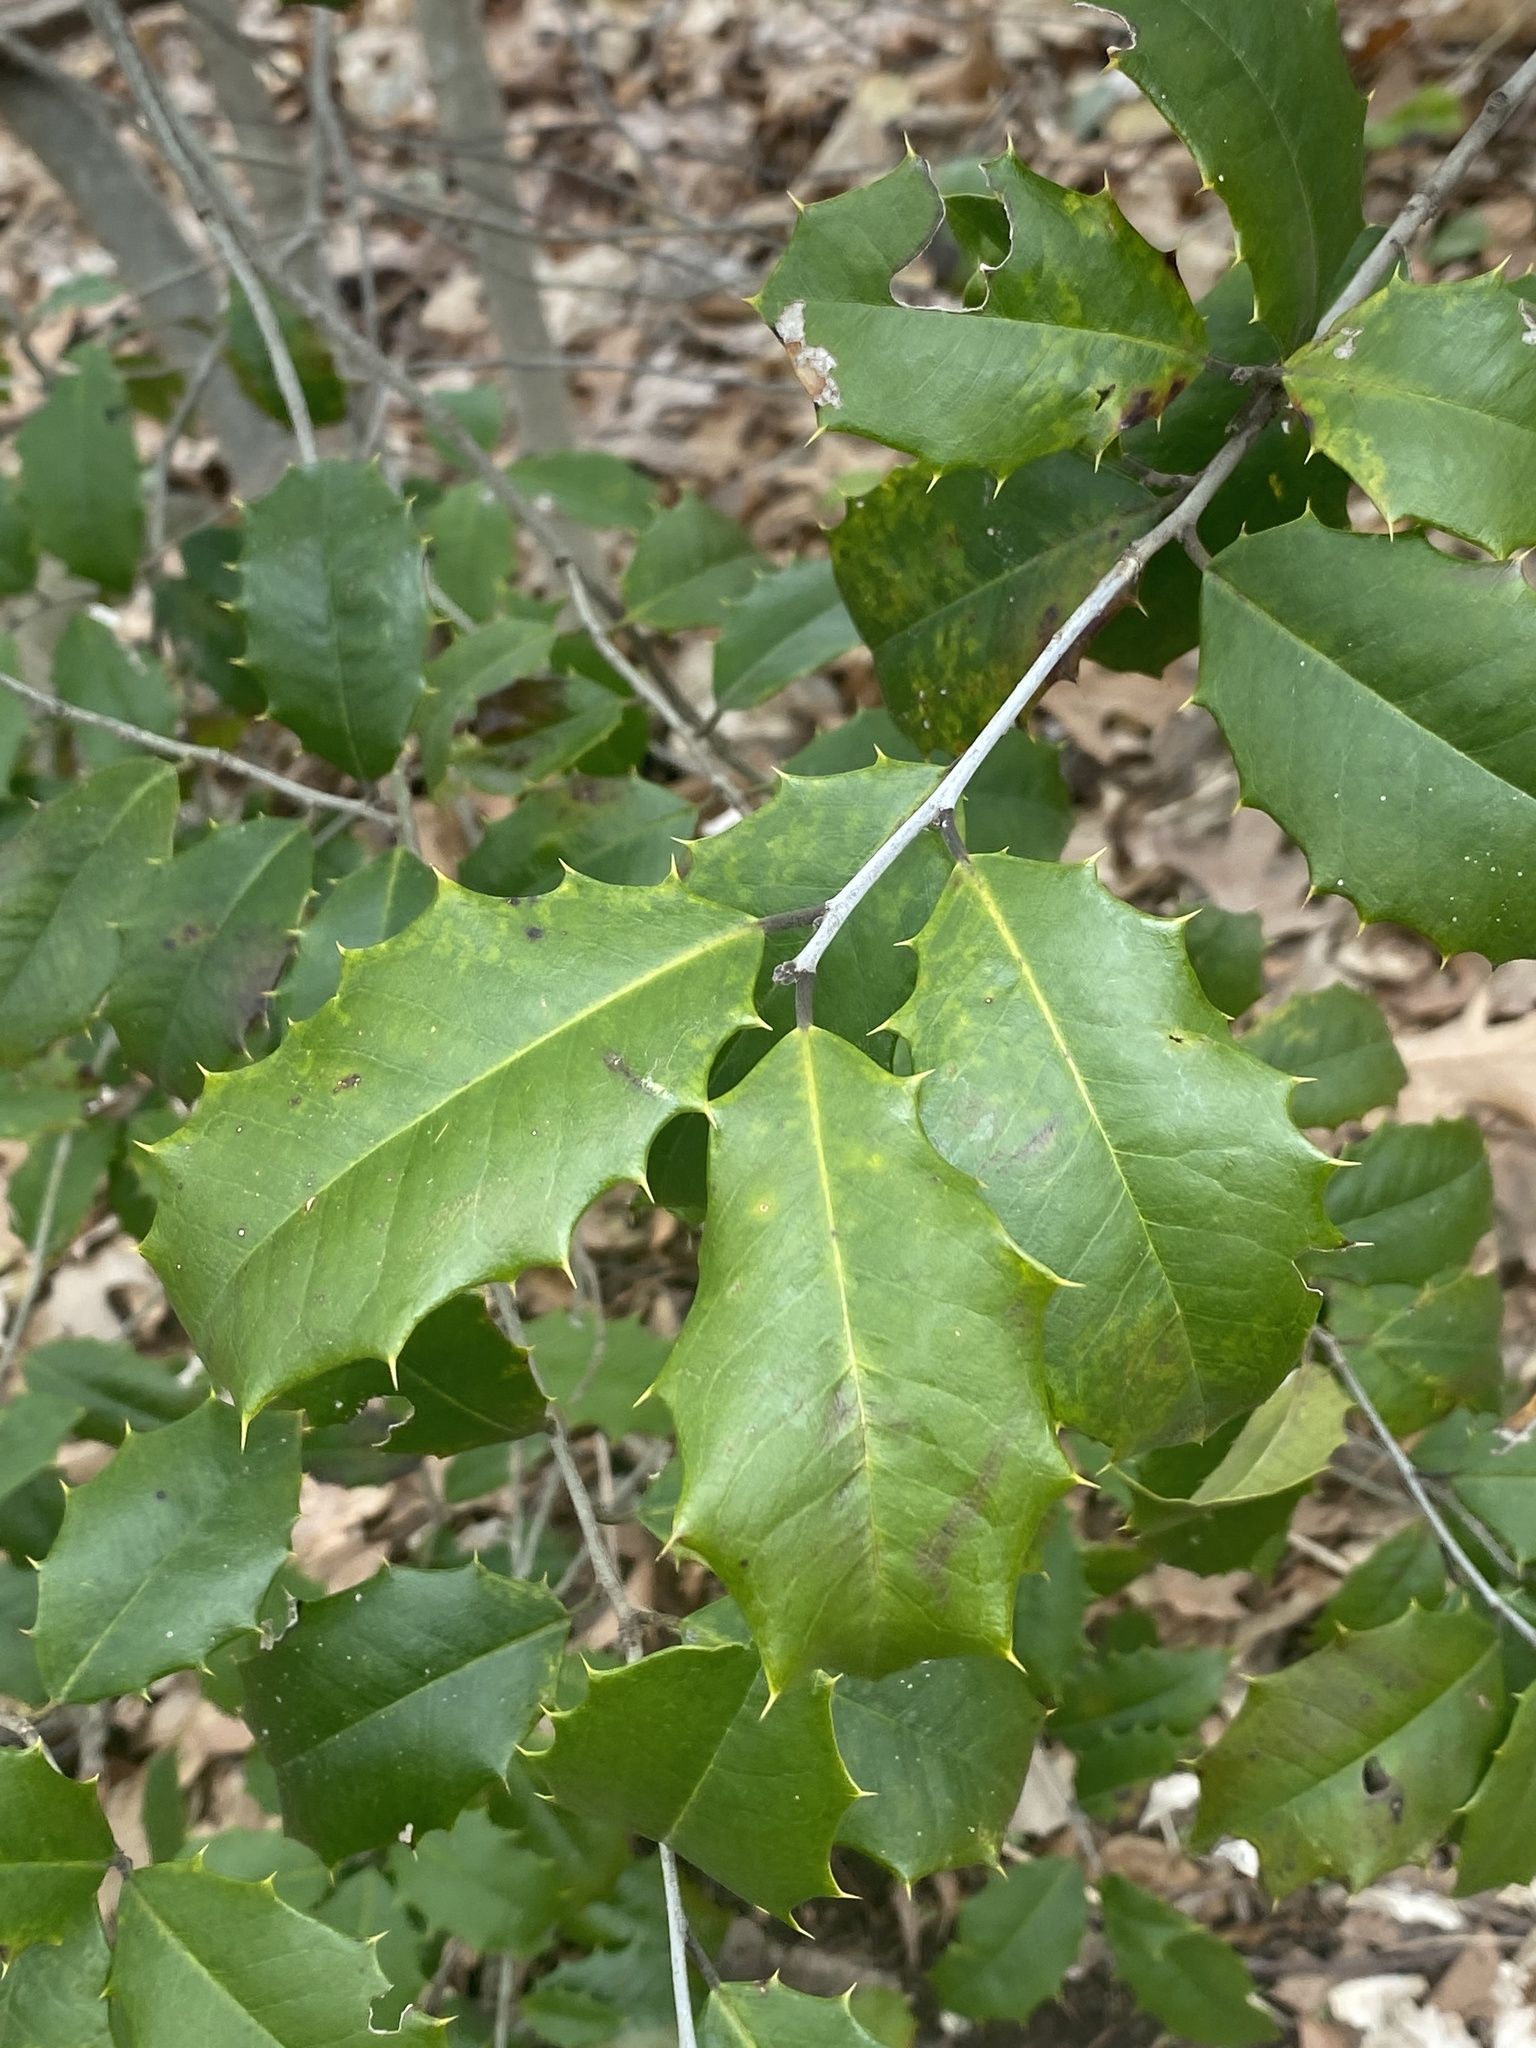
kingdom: Plantae
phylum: Tracheophyta
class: Magnoliopsida
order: Aquifoliales
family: Aquifoliaceae
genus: Ilex
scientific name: Ilex opaca
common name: American holly
